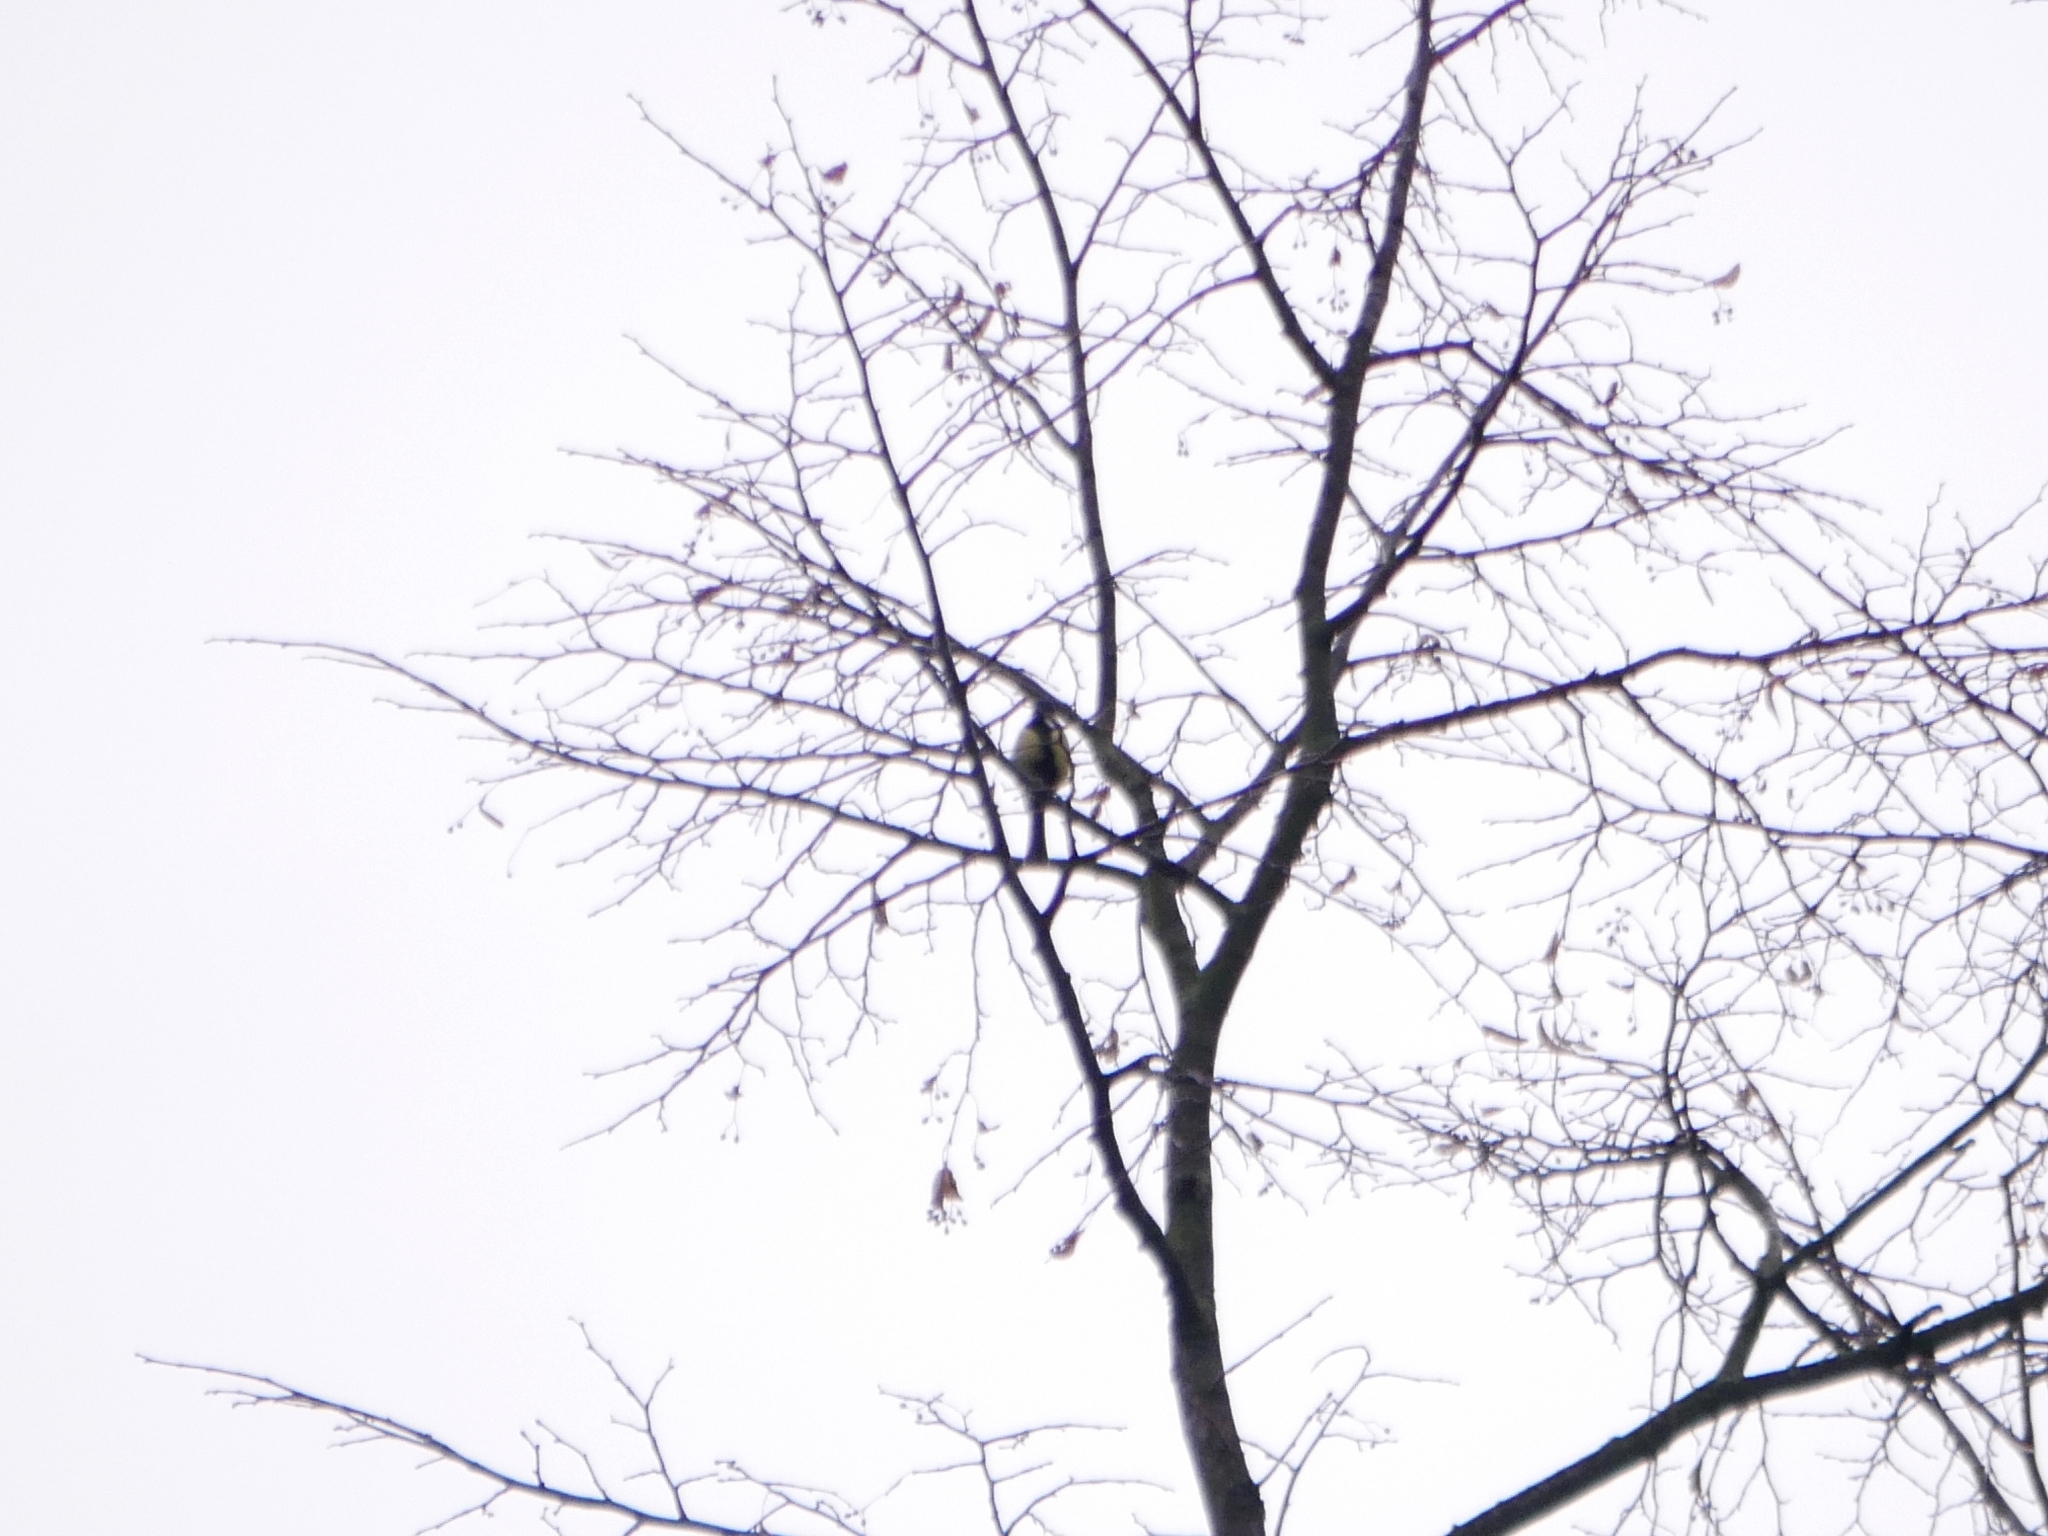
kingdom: Animalia
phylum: Chordata
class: Aves
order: Passeriformes
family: Paridae
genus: Parus
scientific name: Parus major
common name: Great tit
